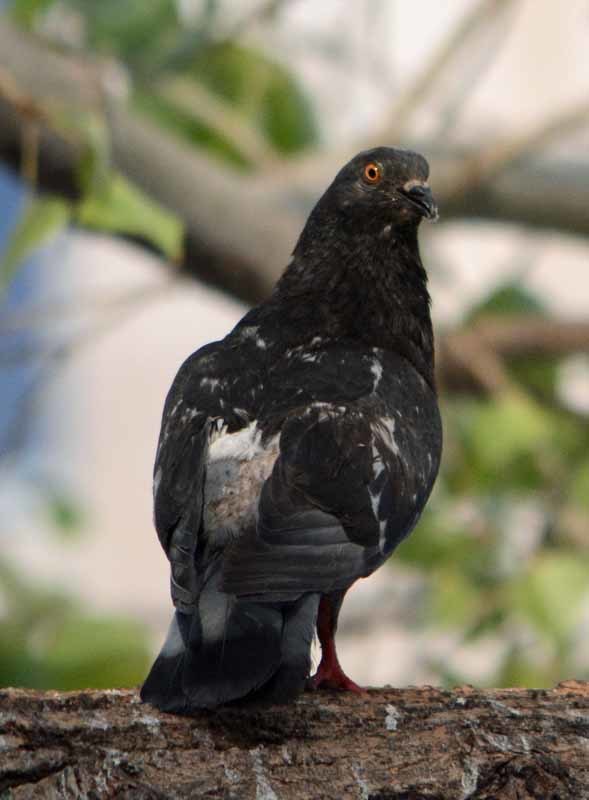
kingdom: Animalia
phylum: Chordata
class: Aves
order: Columbiformes
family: Columbidae
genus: Columba
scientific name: Columba livia
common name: Rock pigeon
